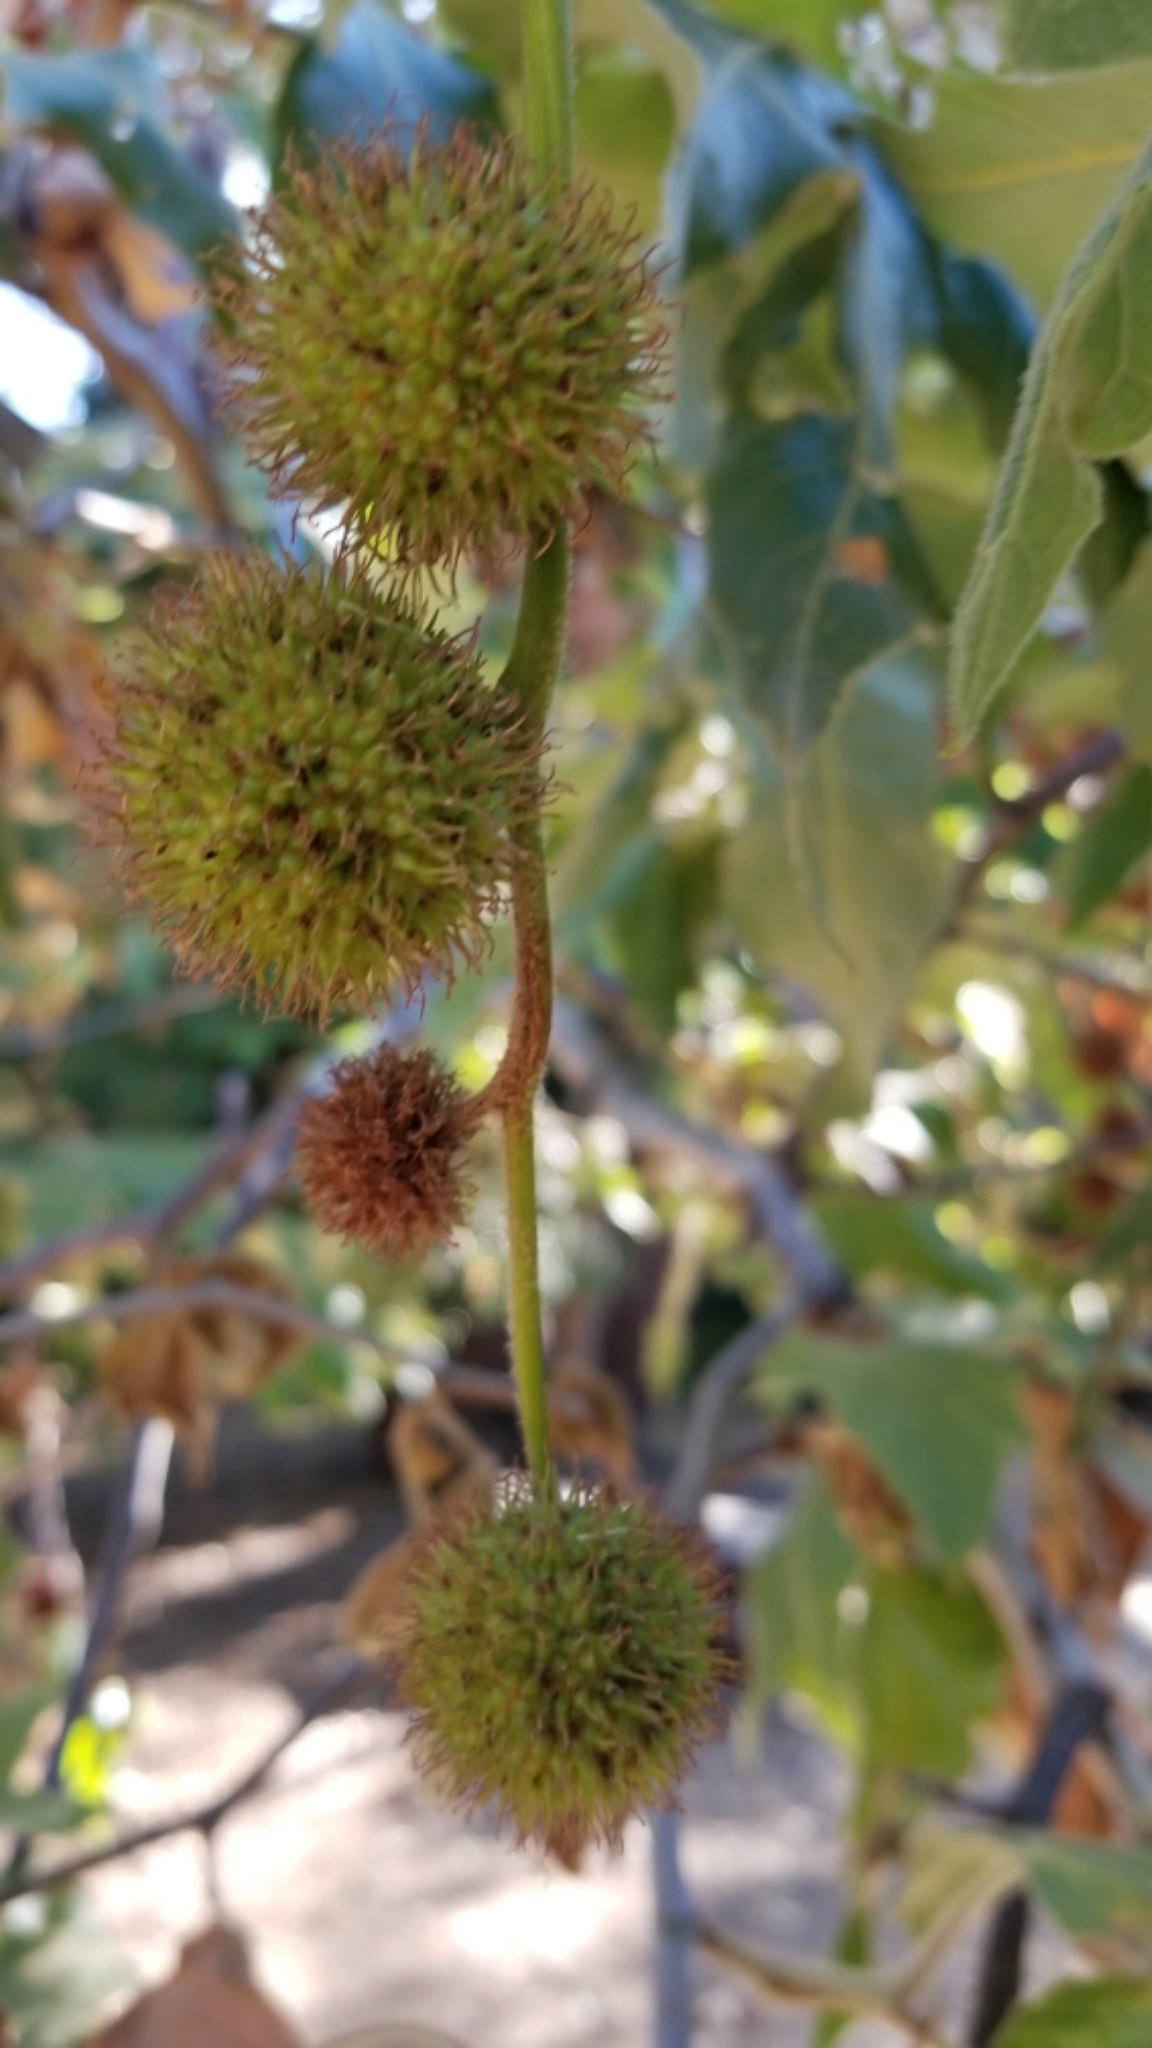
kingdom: Plantae
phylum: Tracheophyta
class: Magnoliopsida
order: Proteales
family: Platanaceae
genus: Platanus
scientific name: Platanus racemosa
